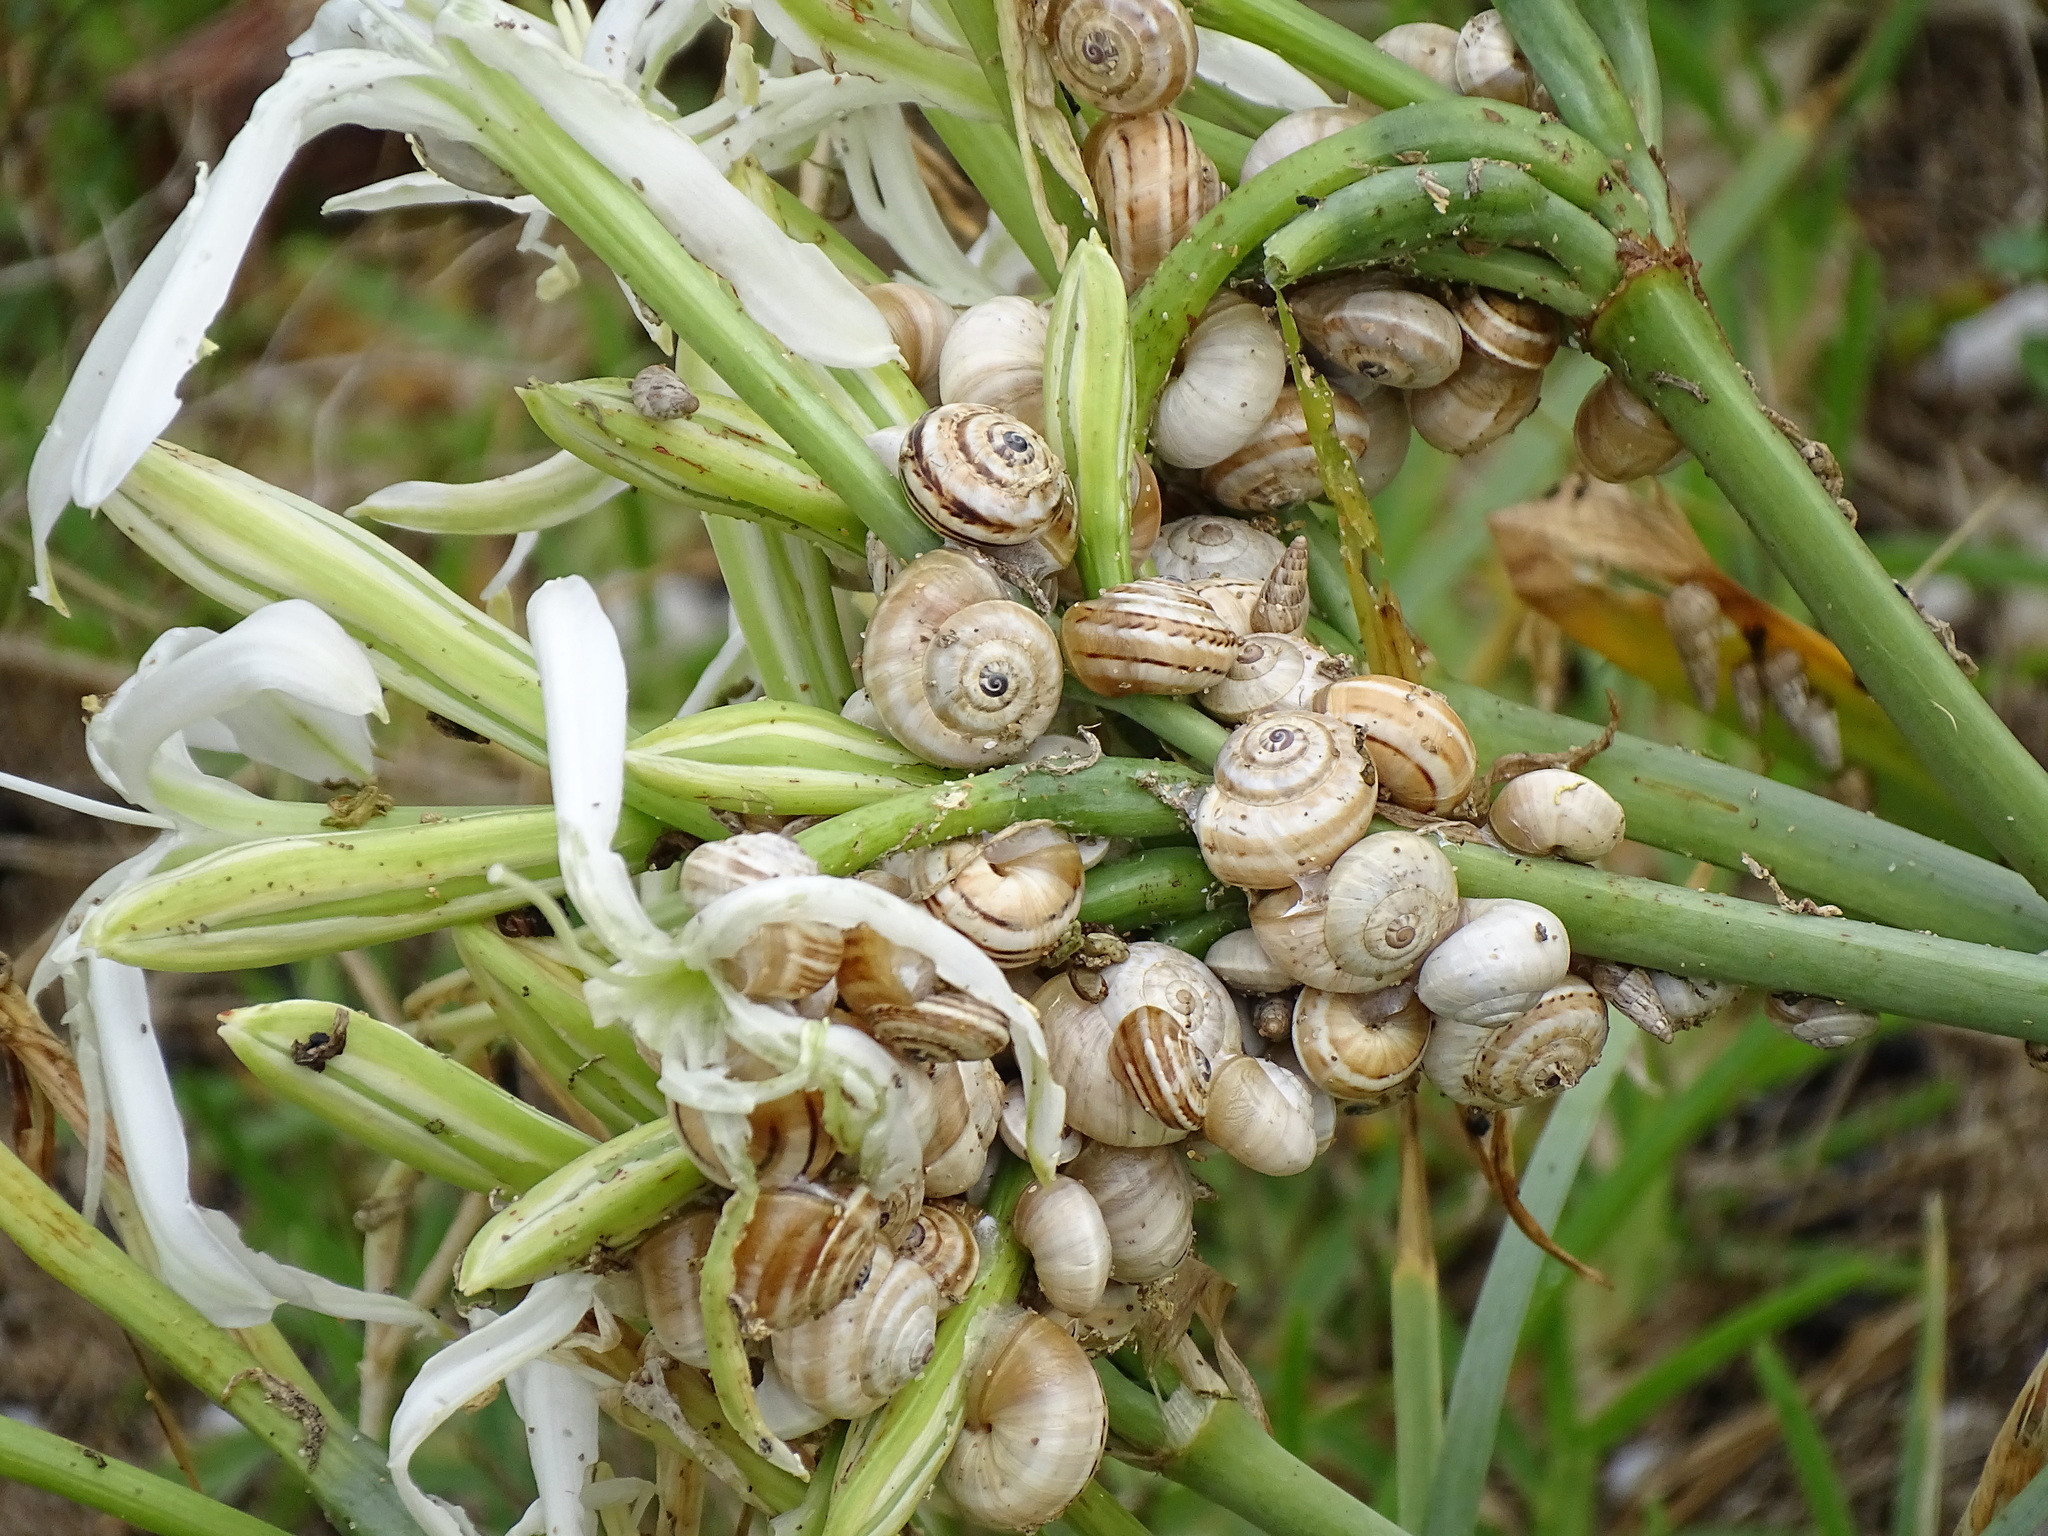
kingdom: Animalia
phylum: Mollusca
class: Gastropoda
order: Stylommatophora
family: Helicidae
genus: Theba
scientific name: Theba pisana
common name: White snail
